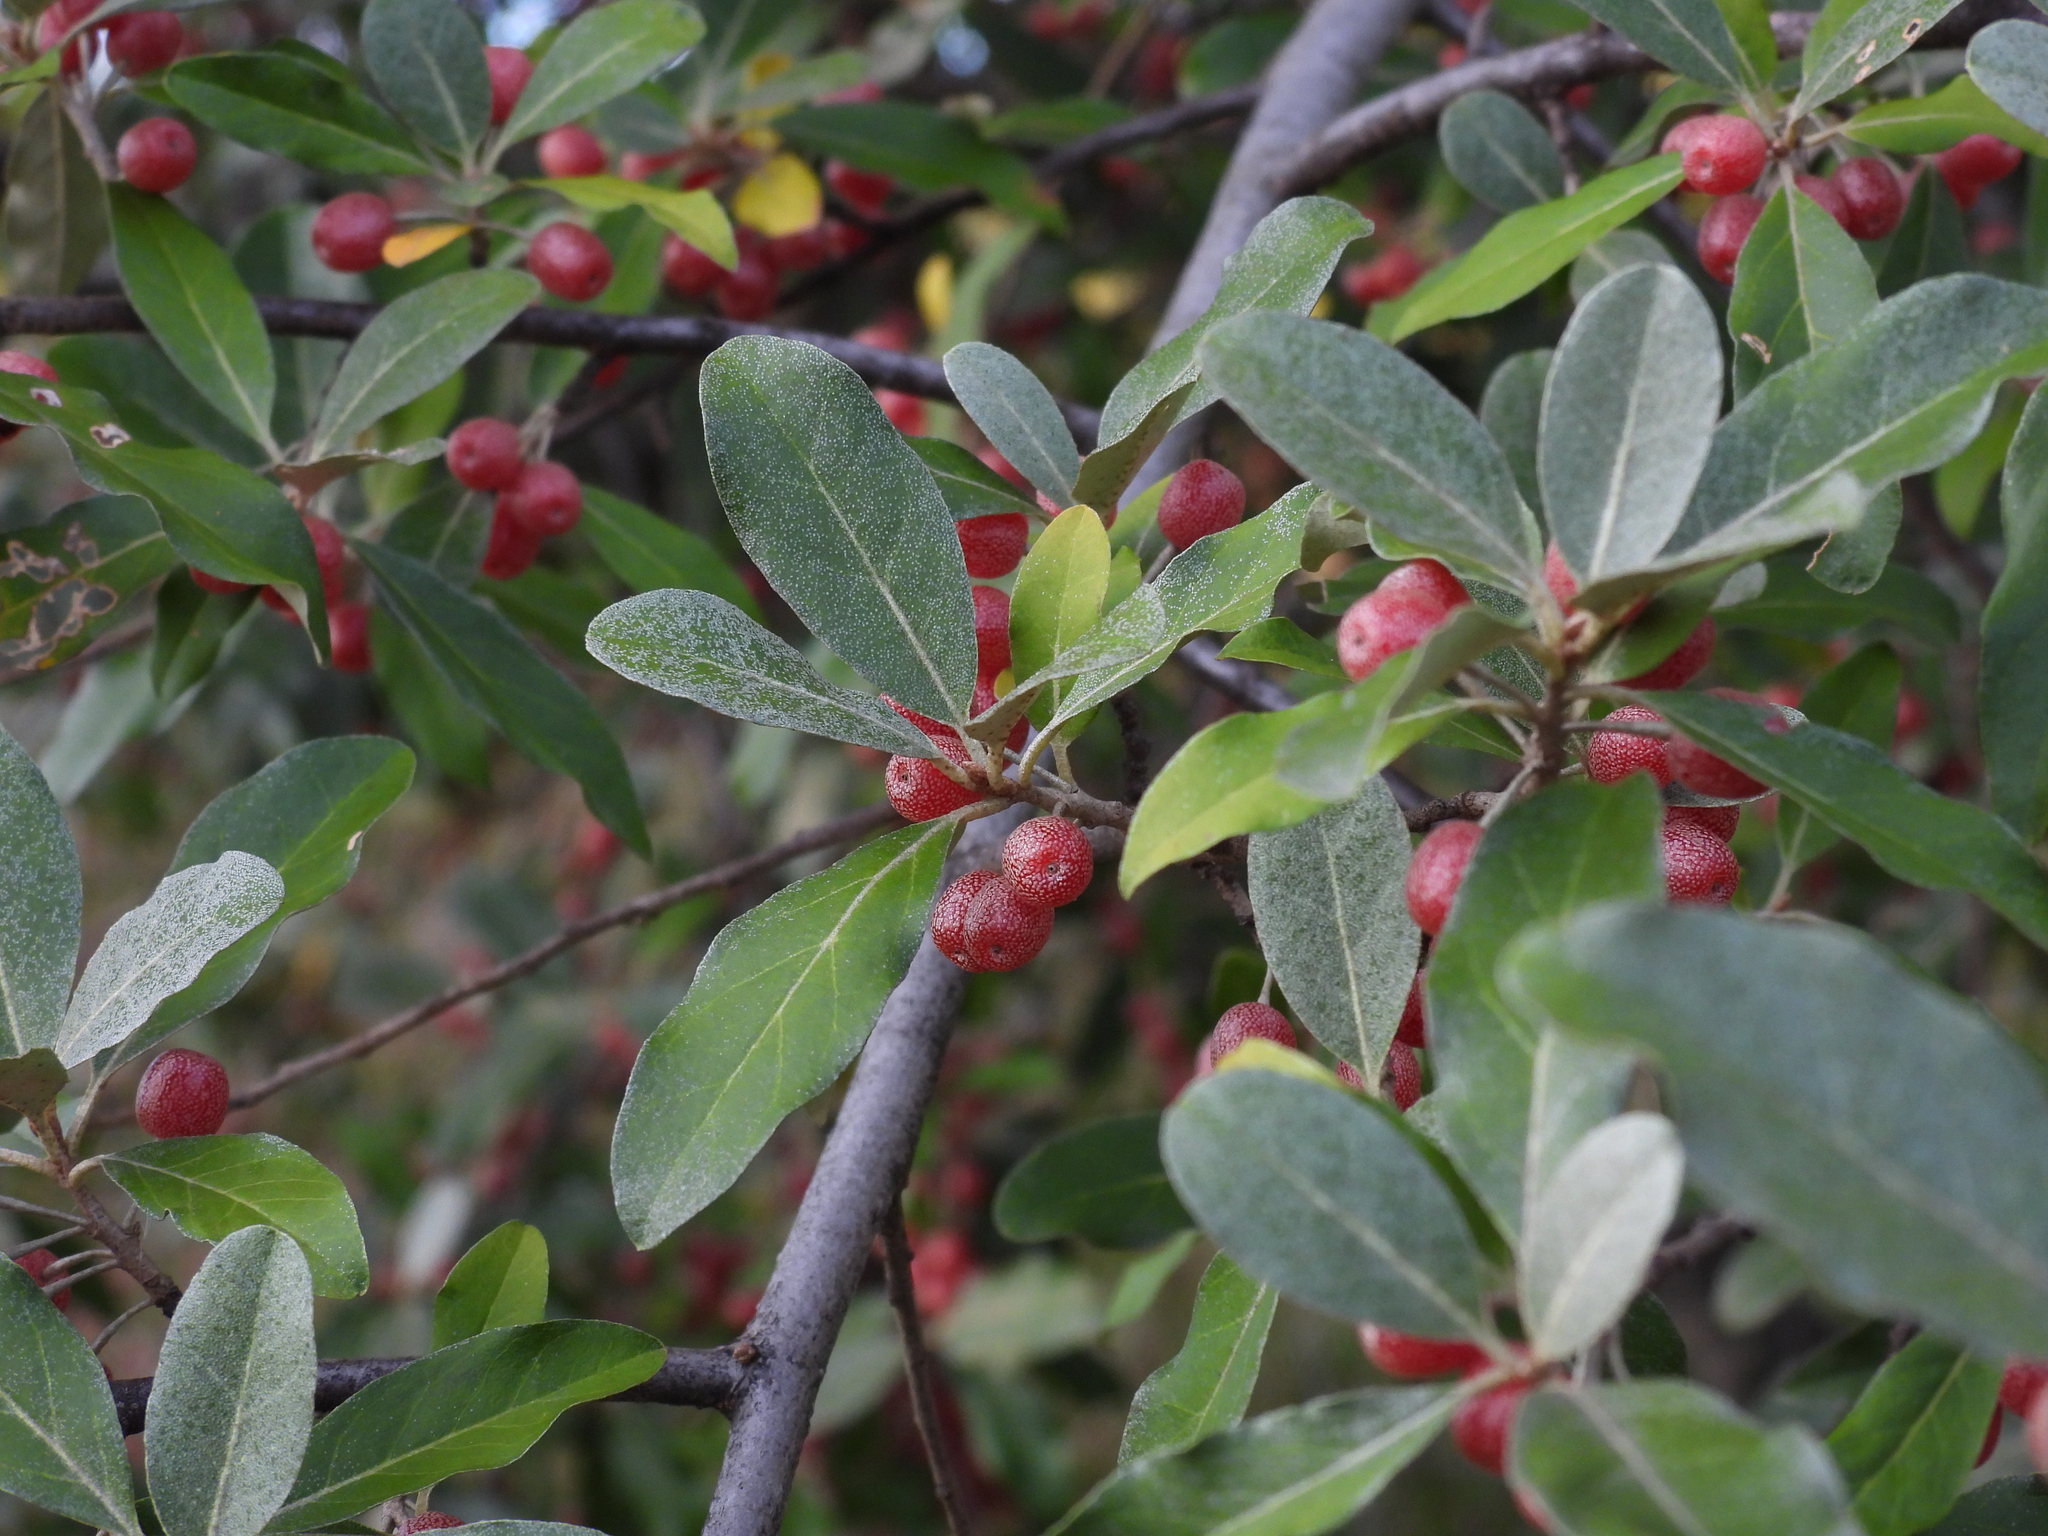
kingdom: Plantae
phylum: Tracheophyta
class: Magnoliopsida
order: Rosales
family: Elaeagnaceae
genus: Elaeagnus
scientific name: Elaeagnus umbellata
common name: Autumn olive
